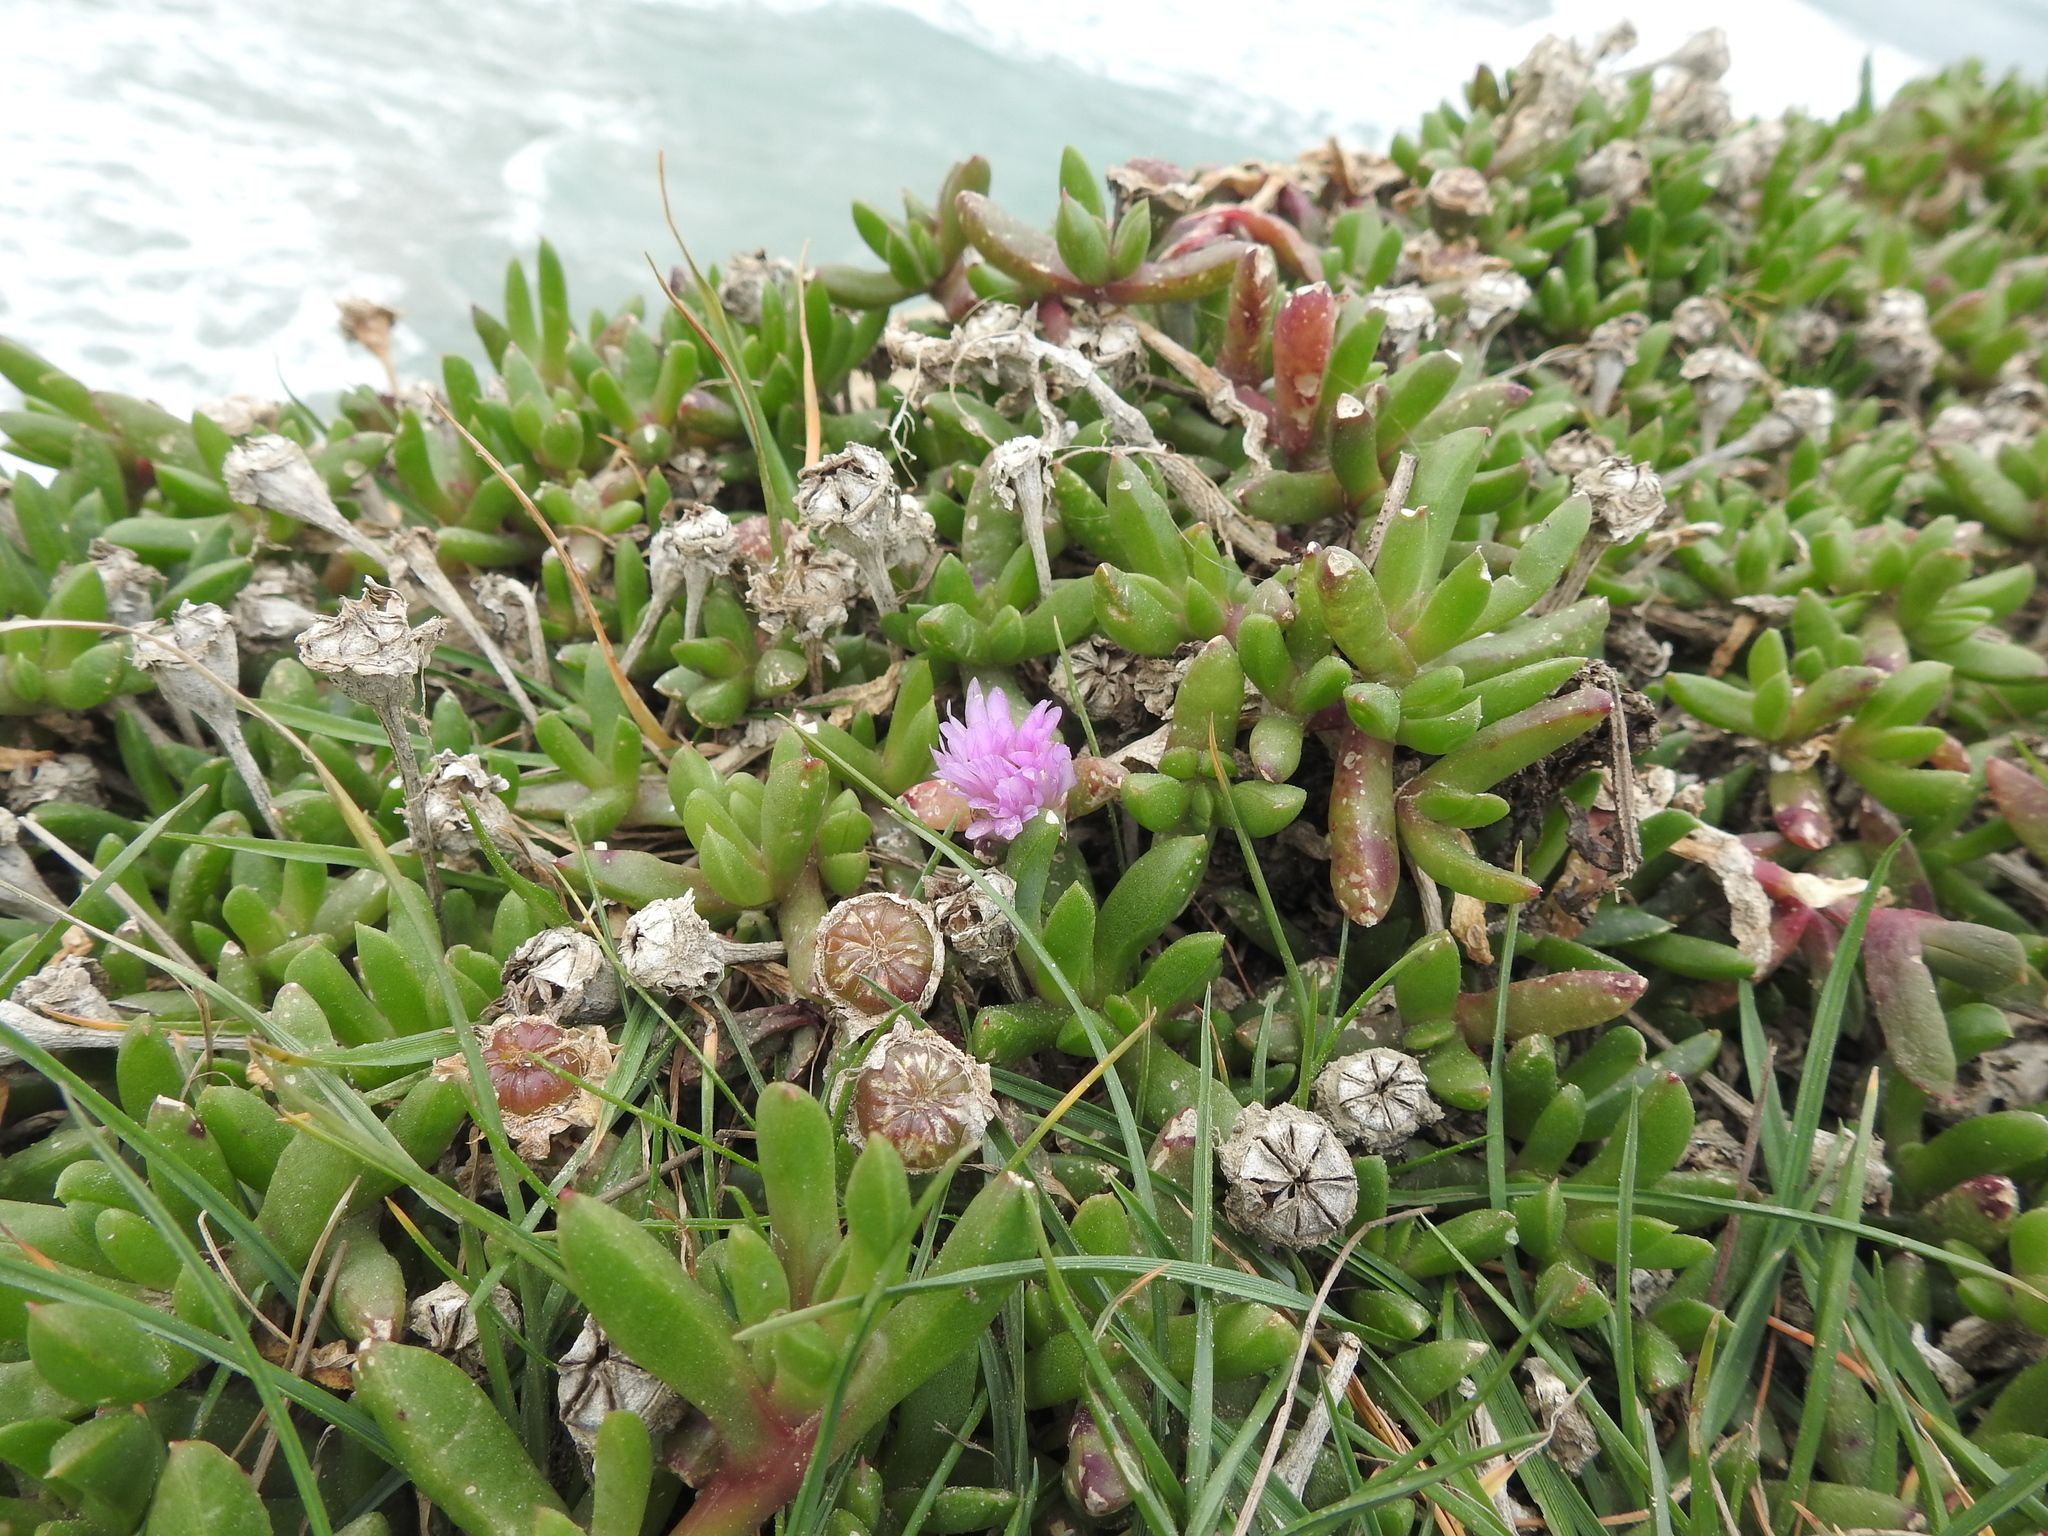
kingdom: Plantae
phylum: Tracheophyta
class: Magnoliopsida
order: Caryophyllales
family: Aizoaceae
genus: Disphyma
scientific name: Disphyma australe
